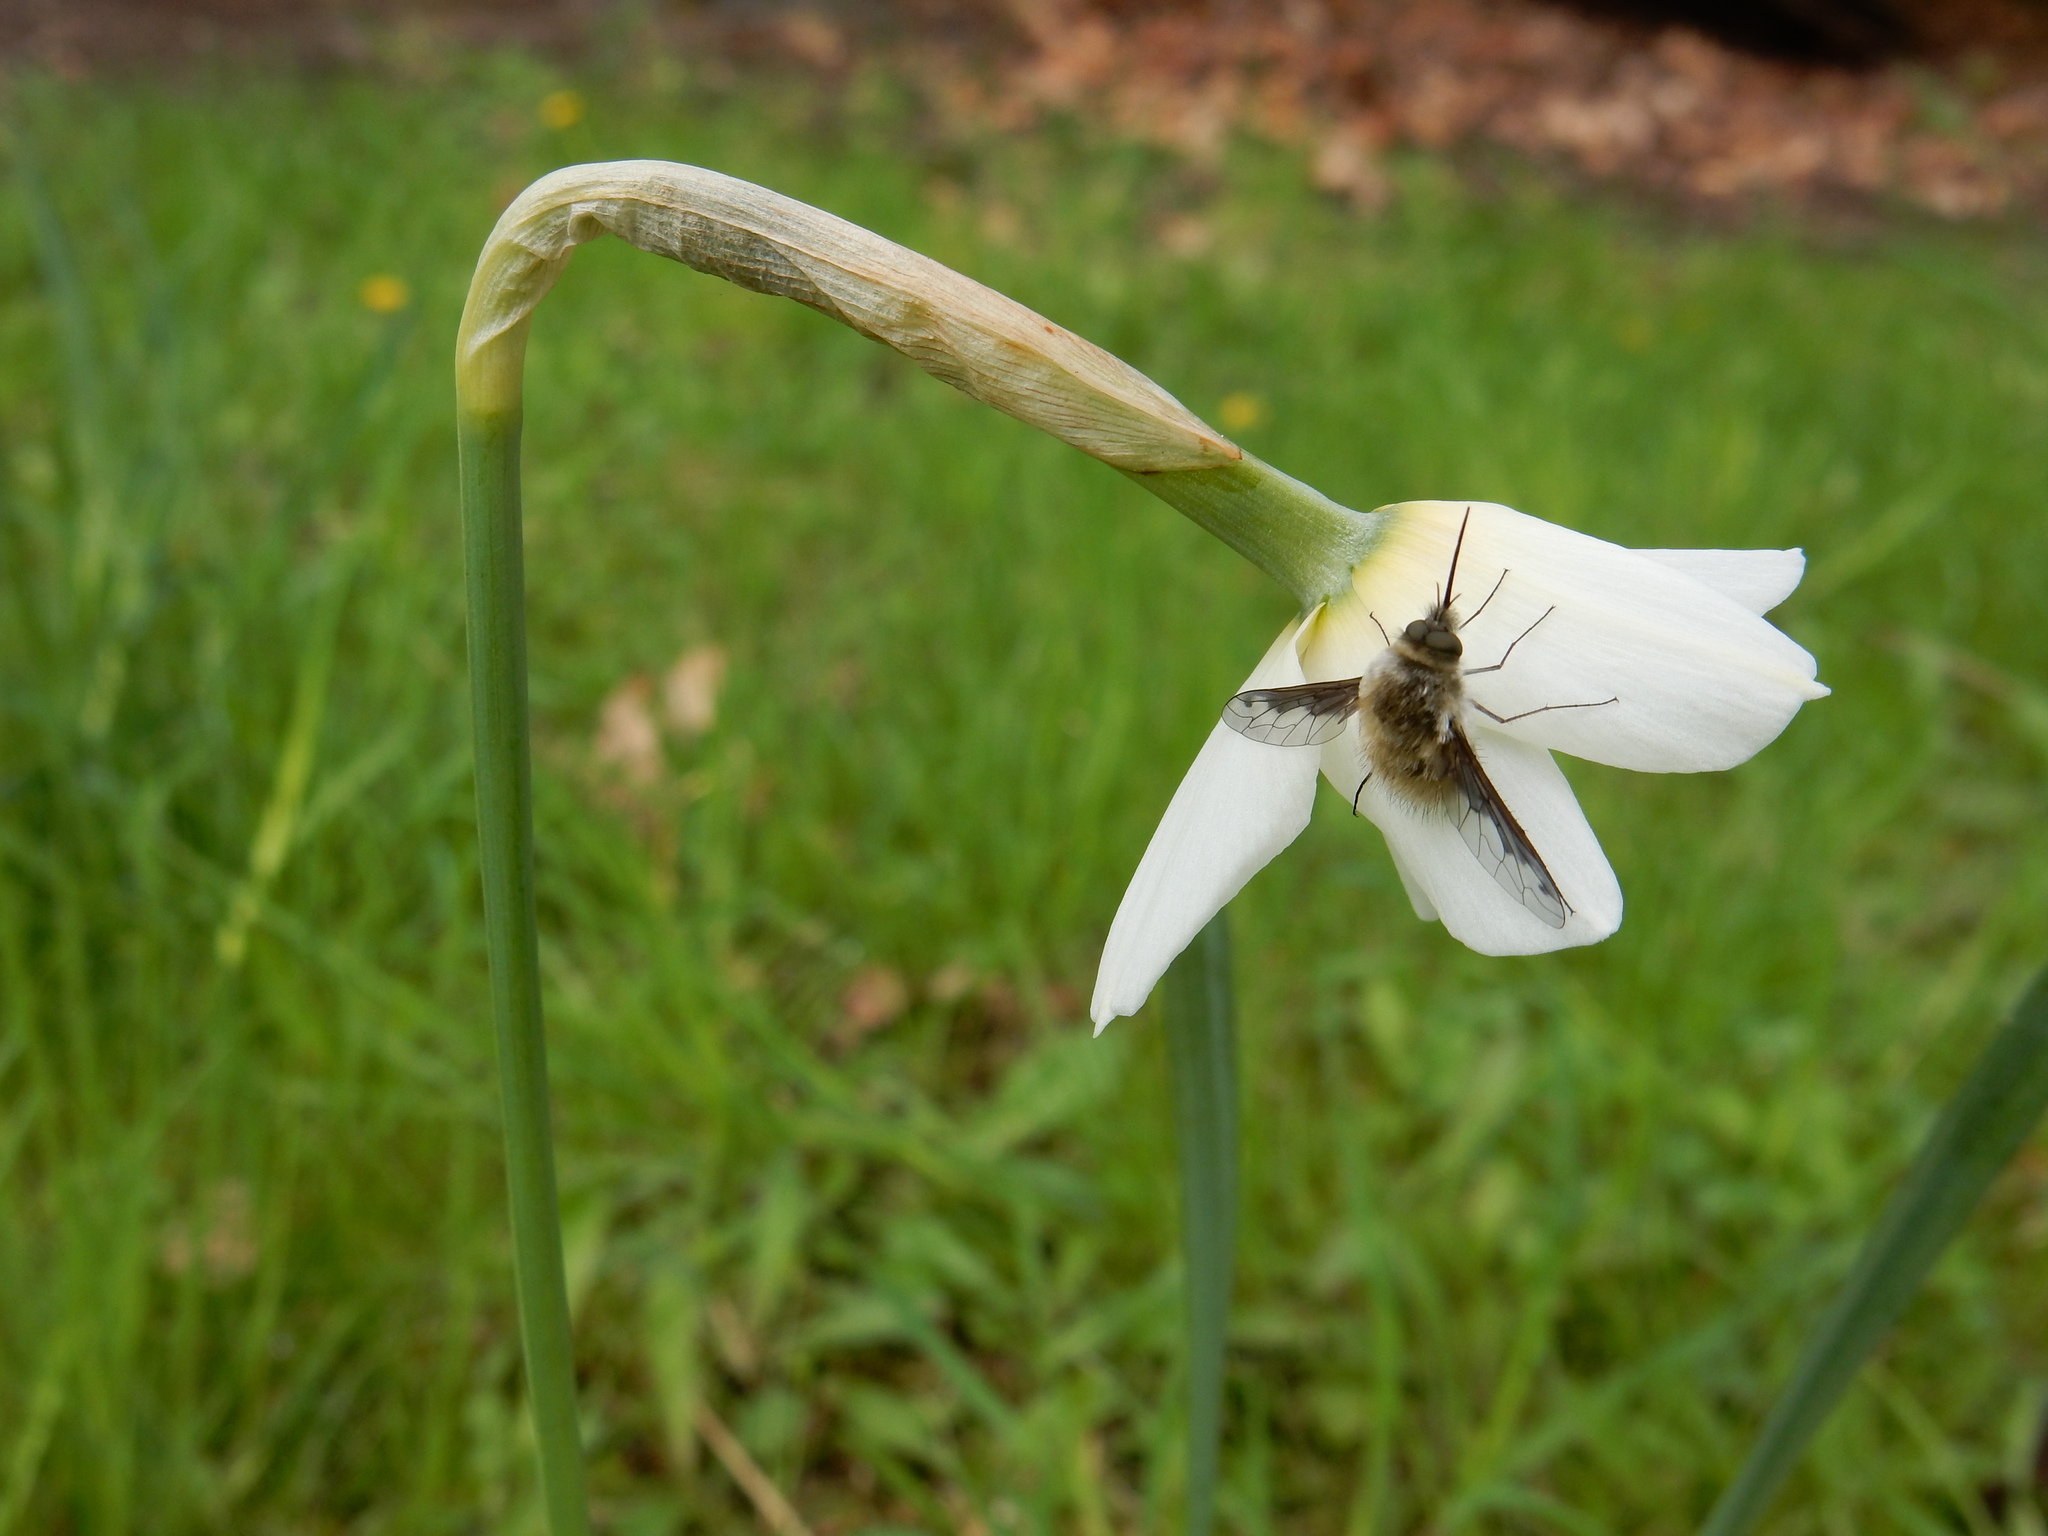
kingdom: Animalia
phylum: Arthropoda
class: Insecta
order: Diptera
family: Bombyliidae
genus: Bombylius
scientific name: Bombylius fimbriatus
